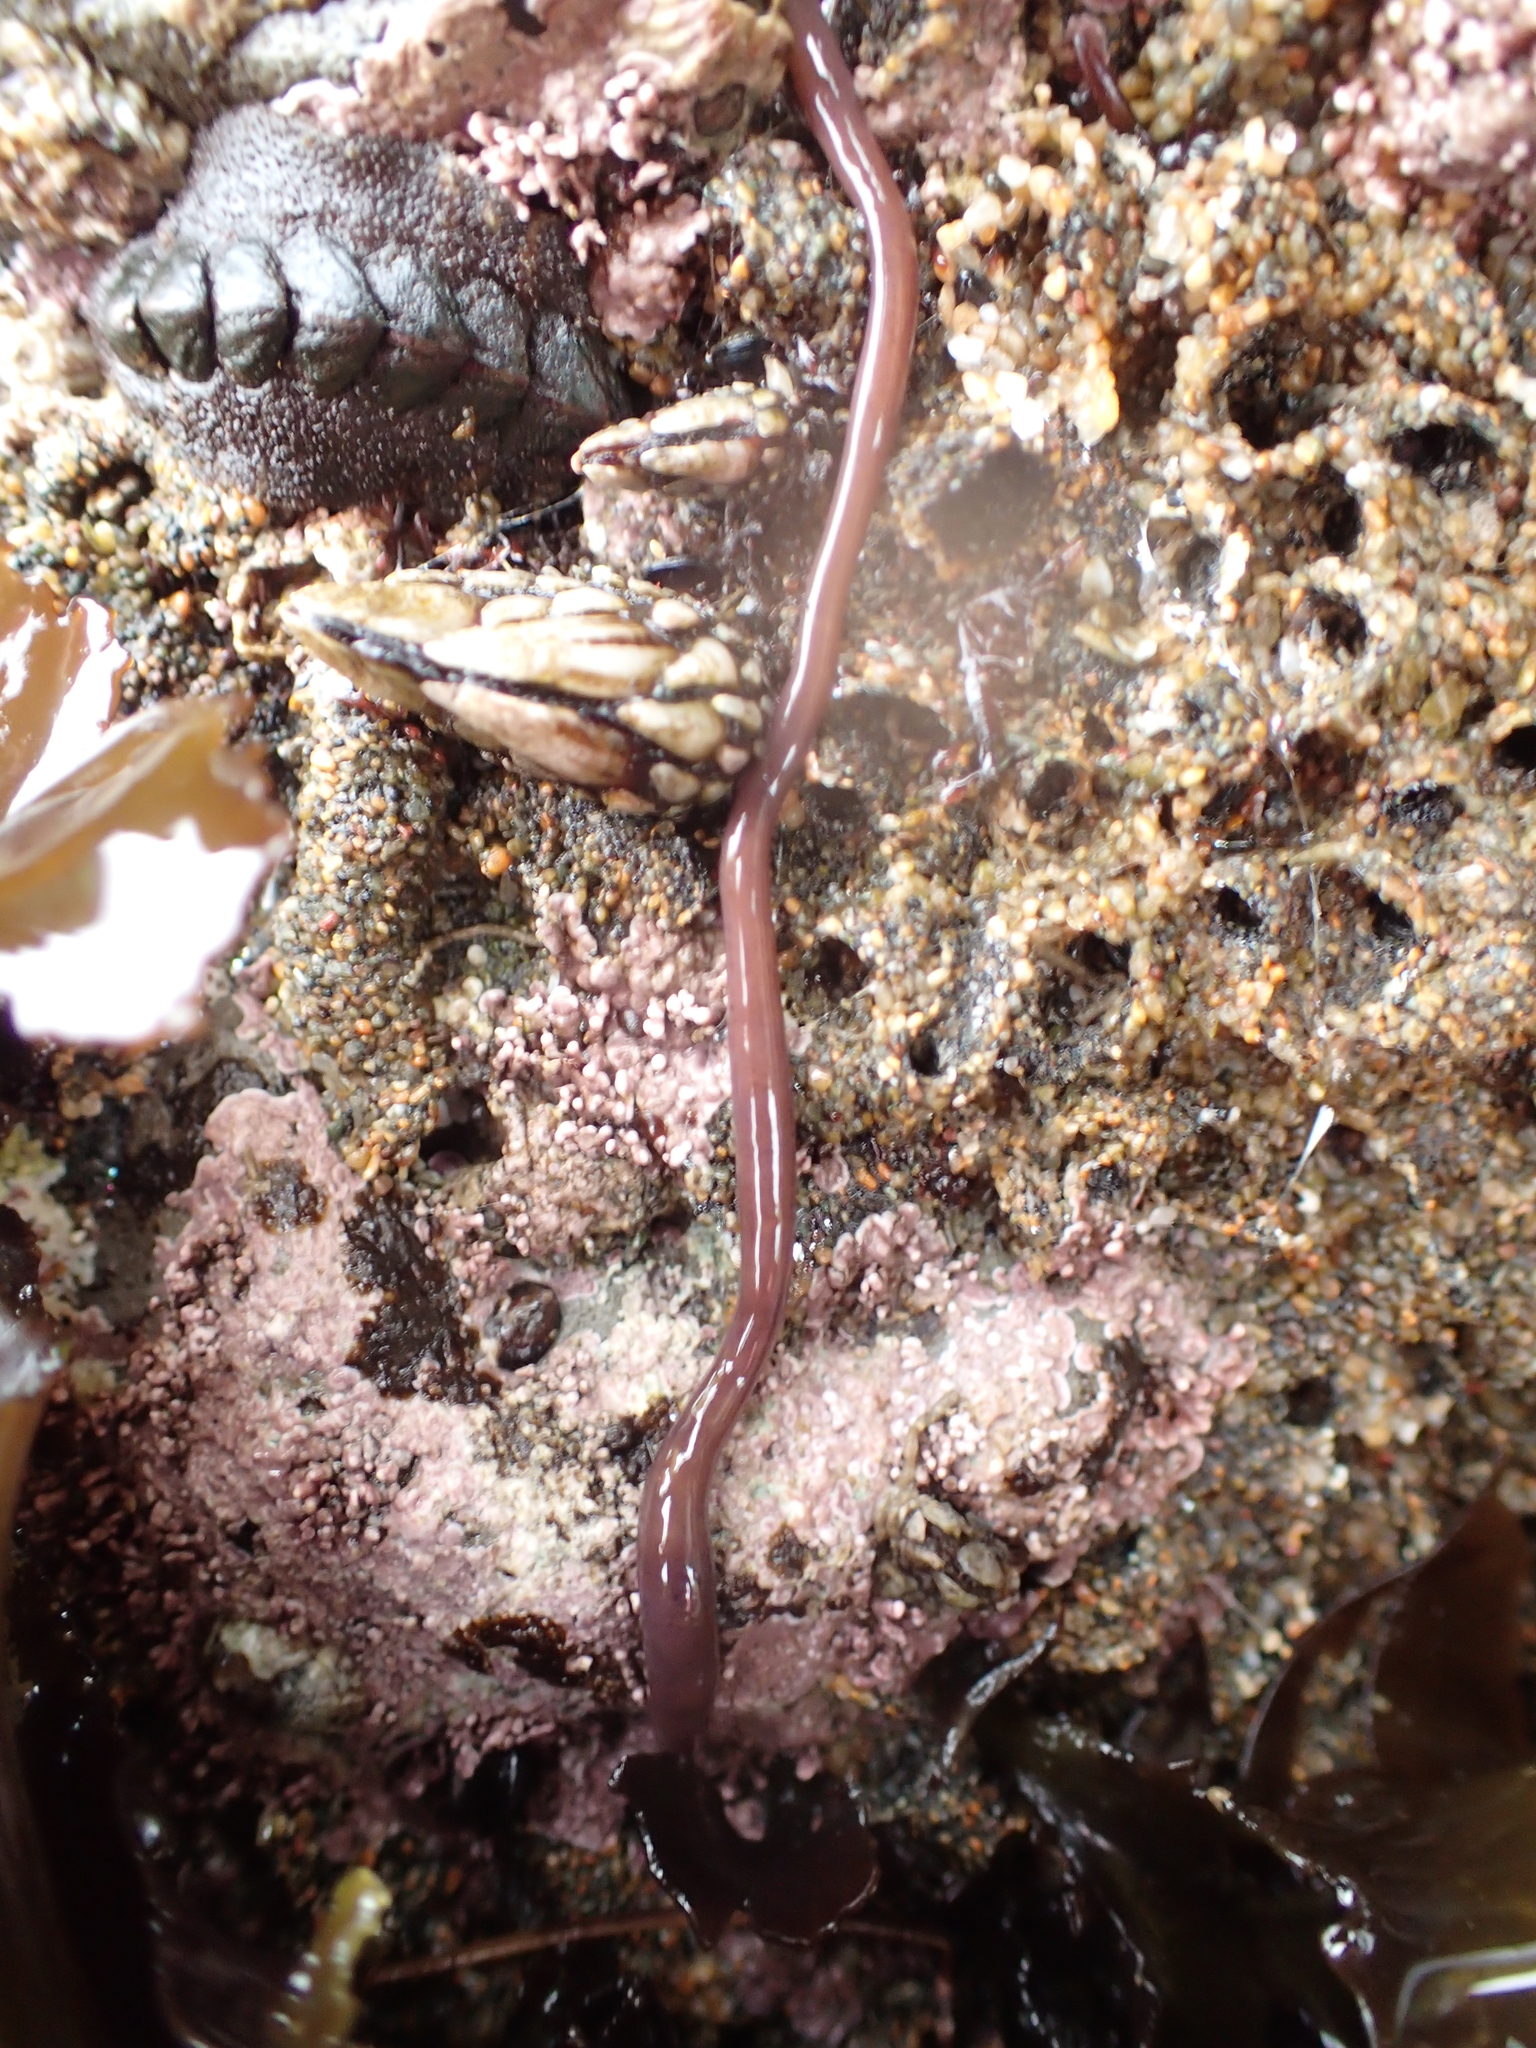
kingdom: Animalia
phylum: Nemertea
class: Hoplonemertea
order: Monostilifera
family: Neesiidae
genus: Paranemertes
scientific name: Paranemertes peregrina
